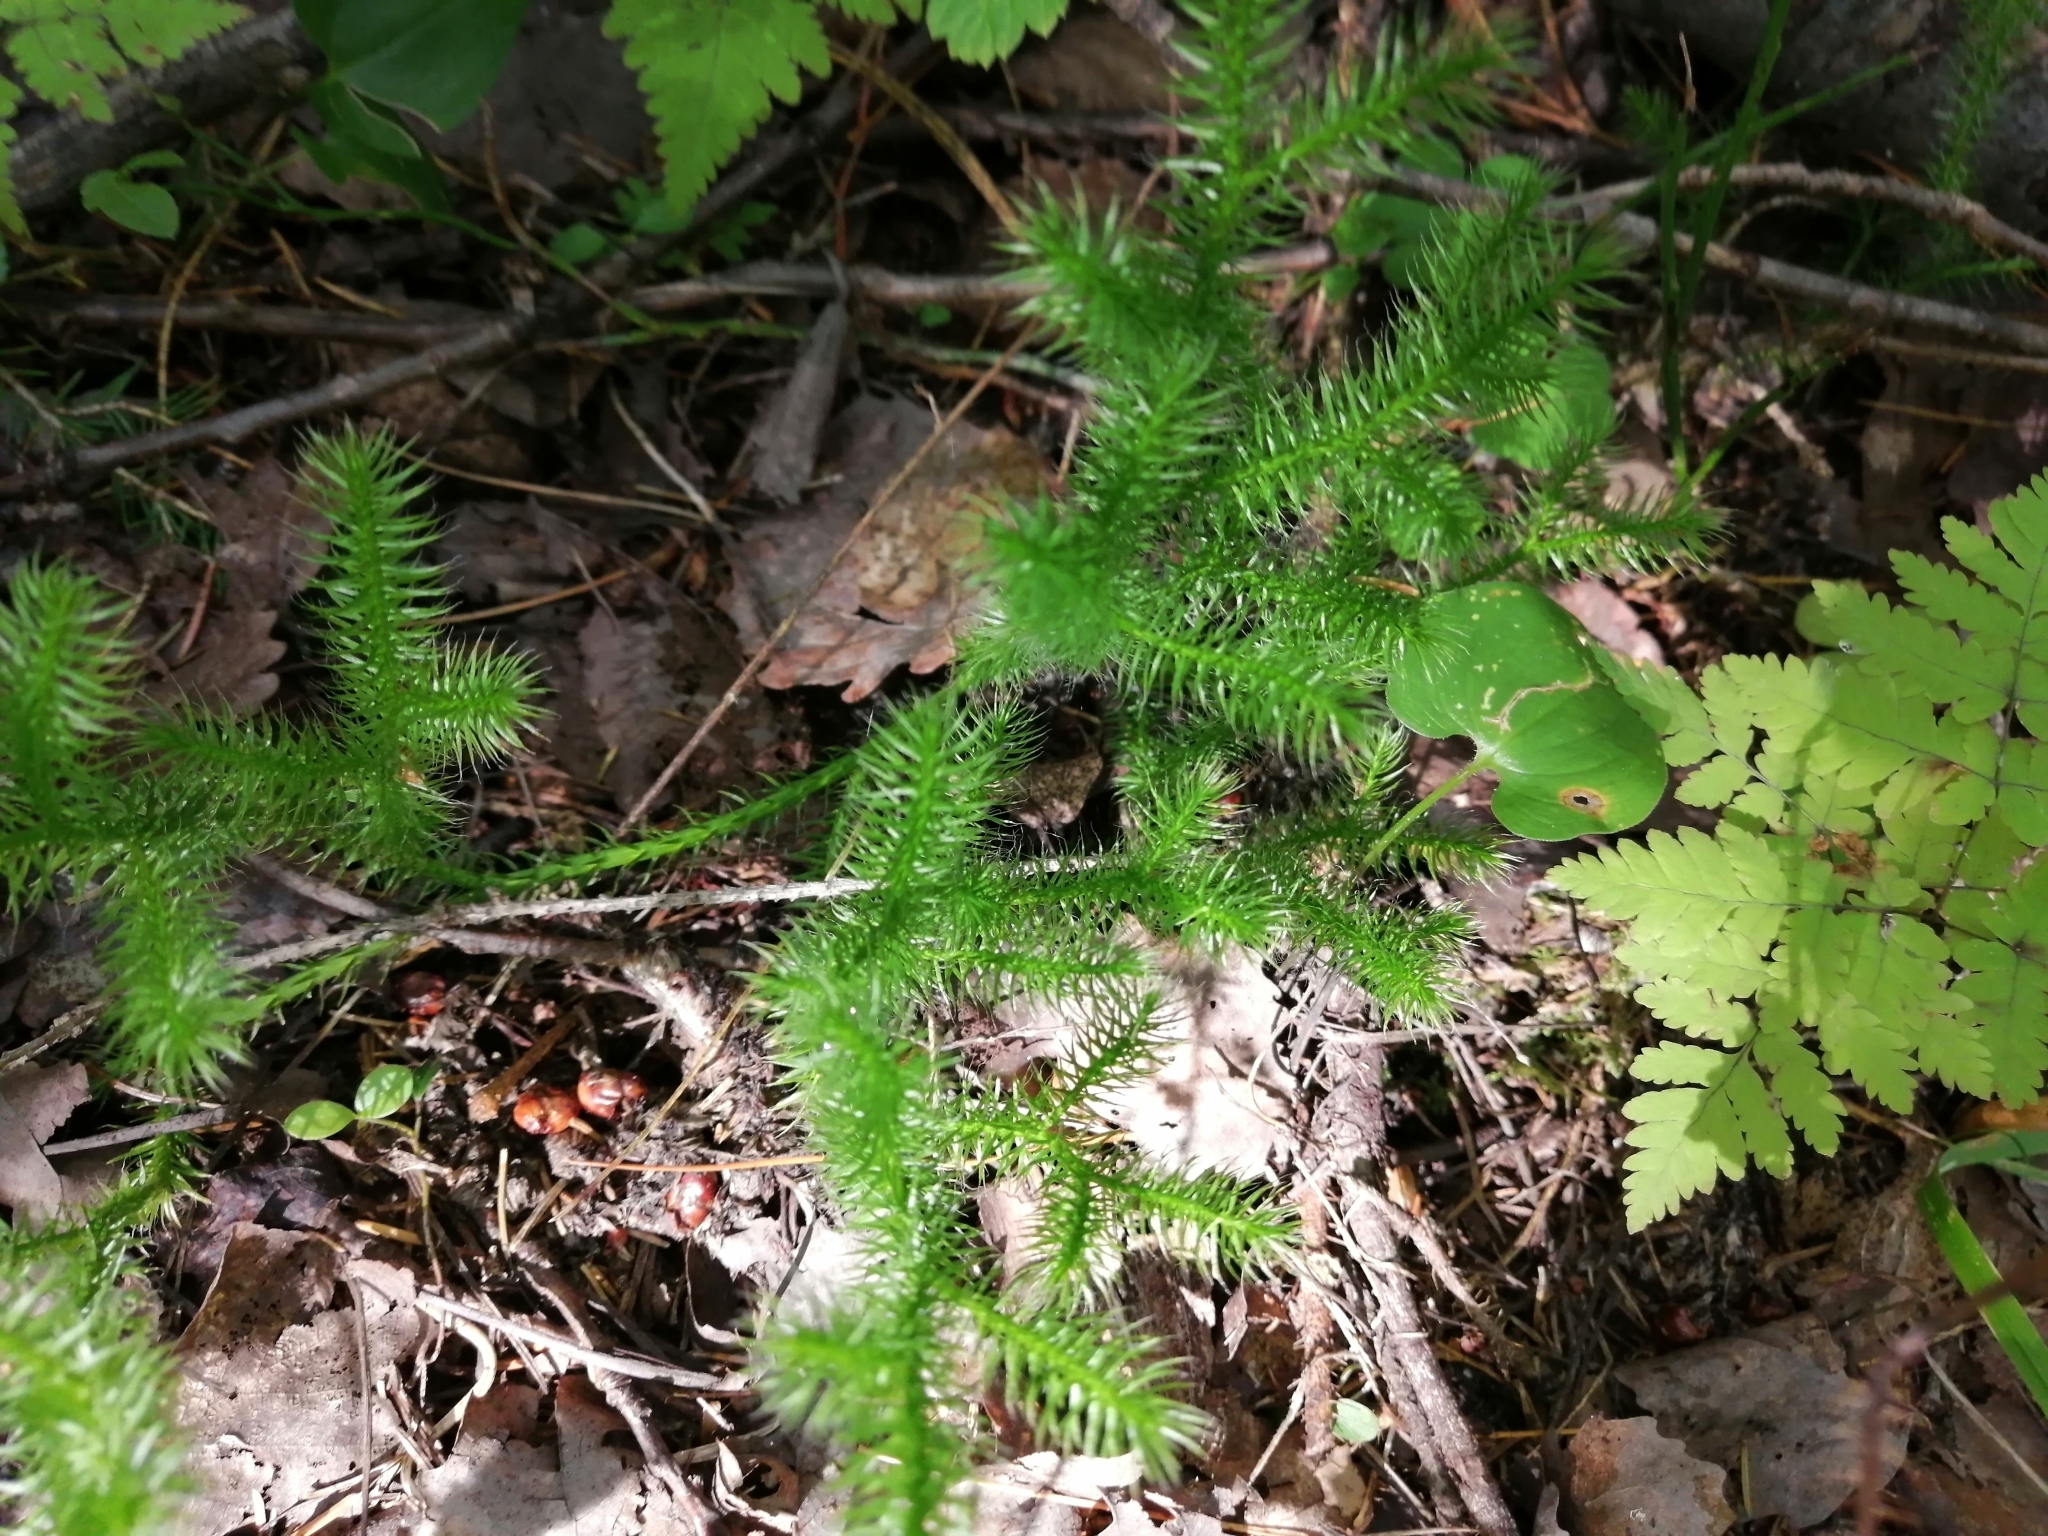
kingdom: Plantae
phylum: Tracheophyta
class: Lycopodiopsida
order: Lycopodiales
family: Lycopodiaceae
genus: Lycopodium
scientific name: Lycopodium clavatum
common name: Stag's-horn clubmoss
